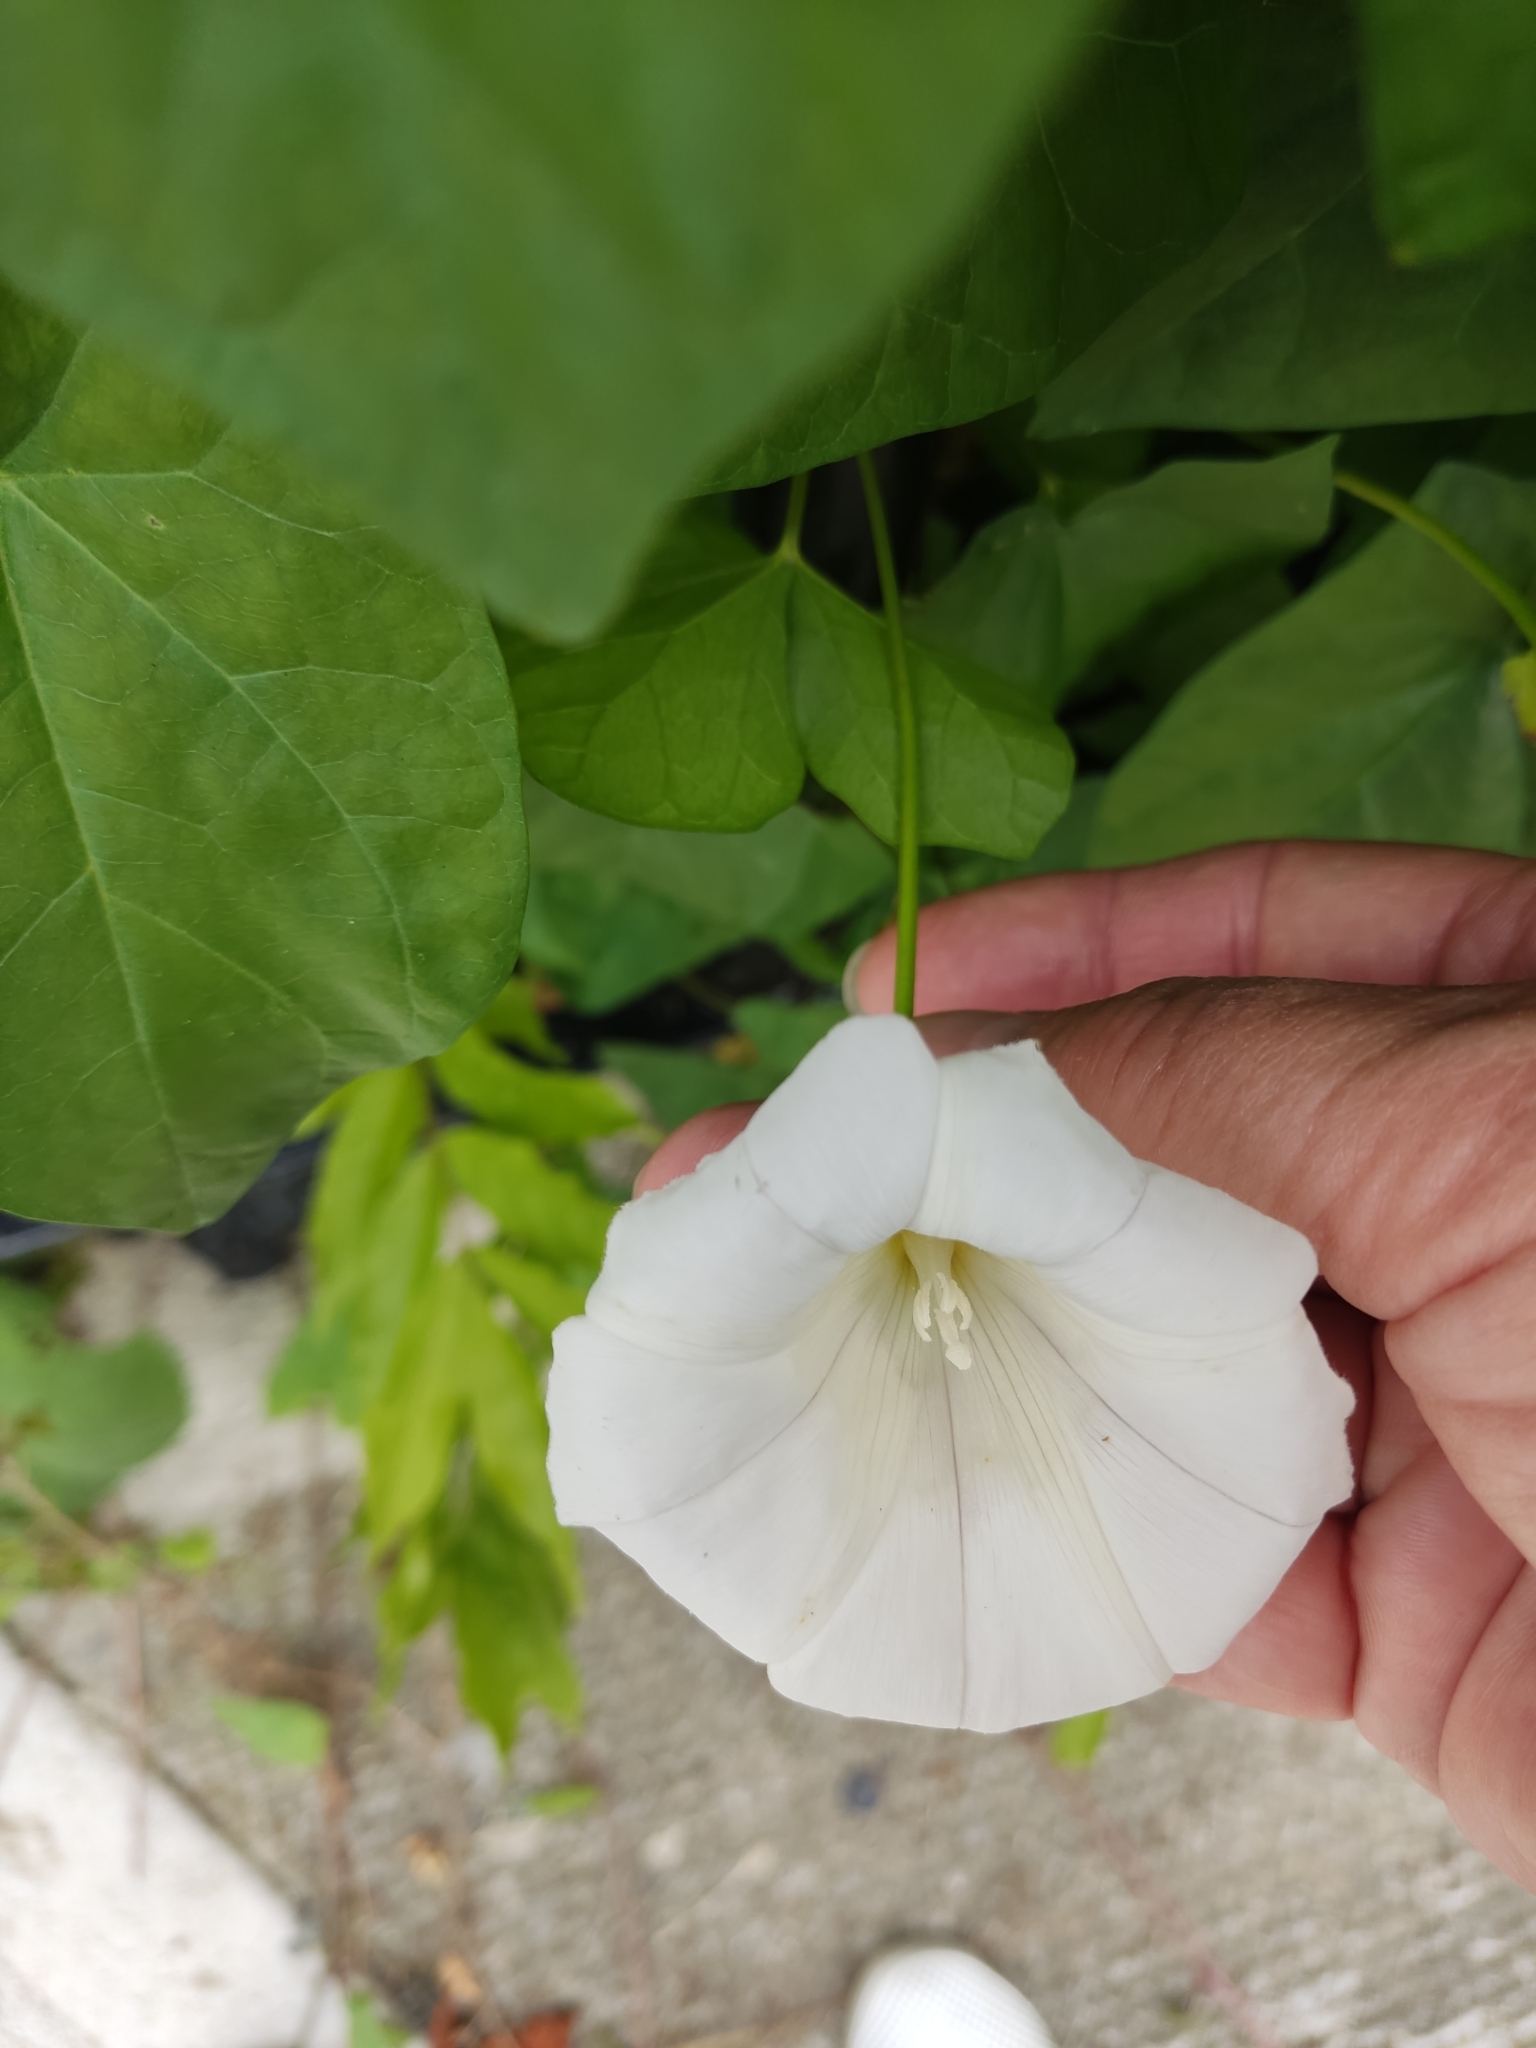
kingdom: Plantae
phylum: Tracheophyta
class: Magnoliopsida
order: Solanales
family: Convolvulaceae
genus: Calystegia
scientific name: Calystegia sepium
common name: Hedge bindweed
